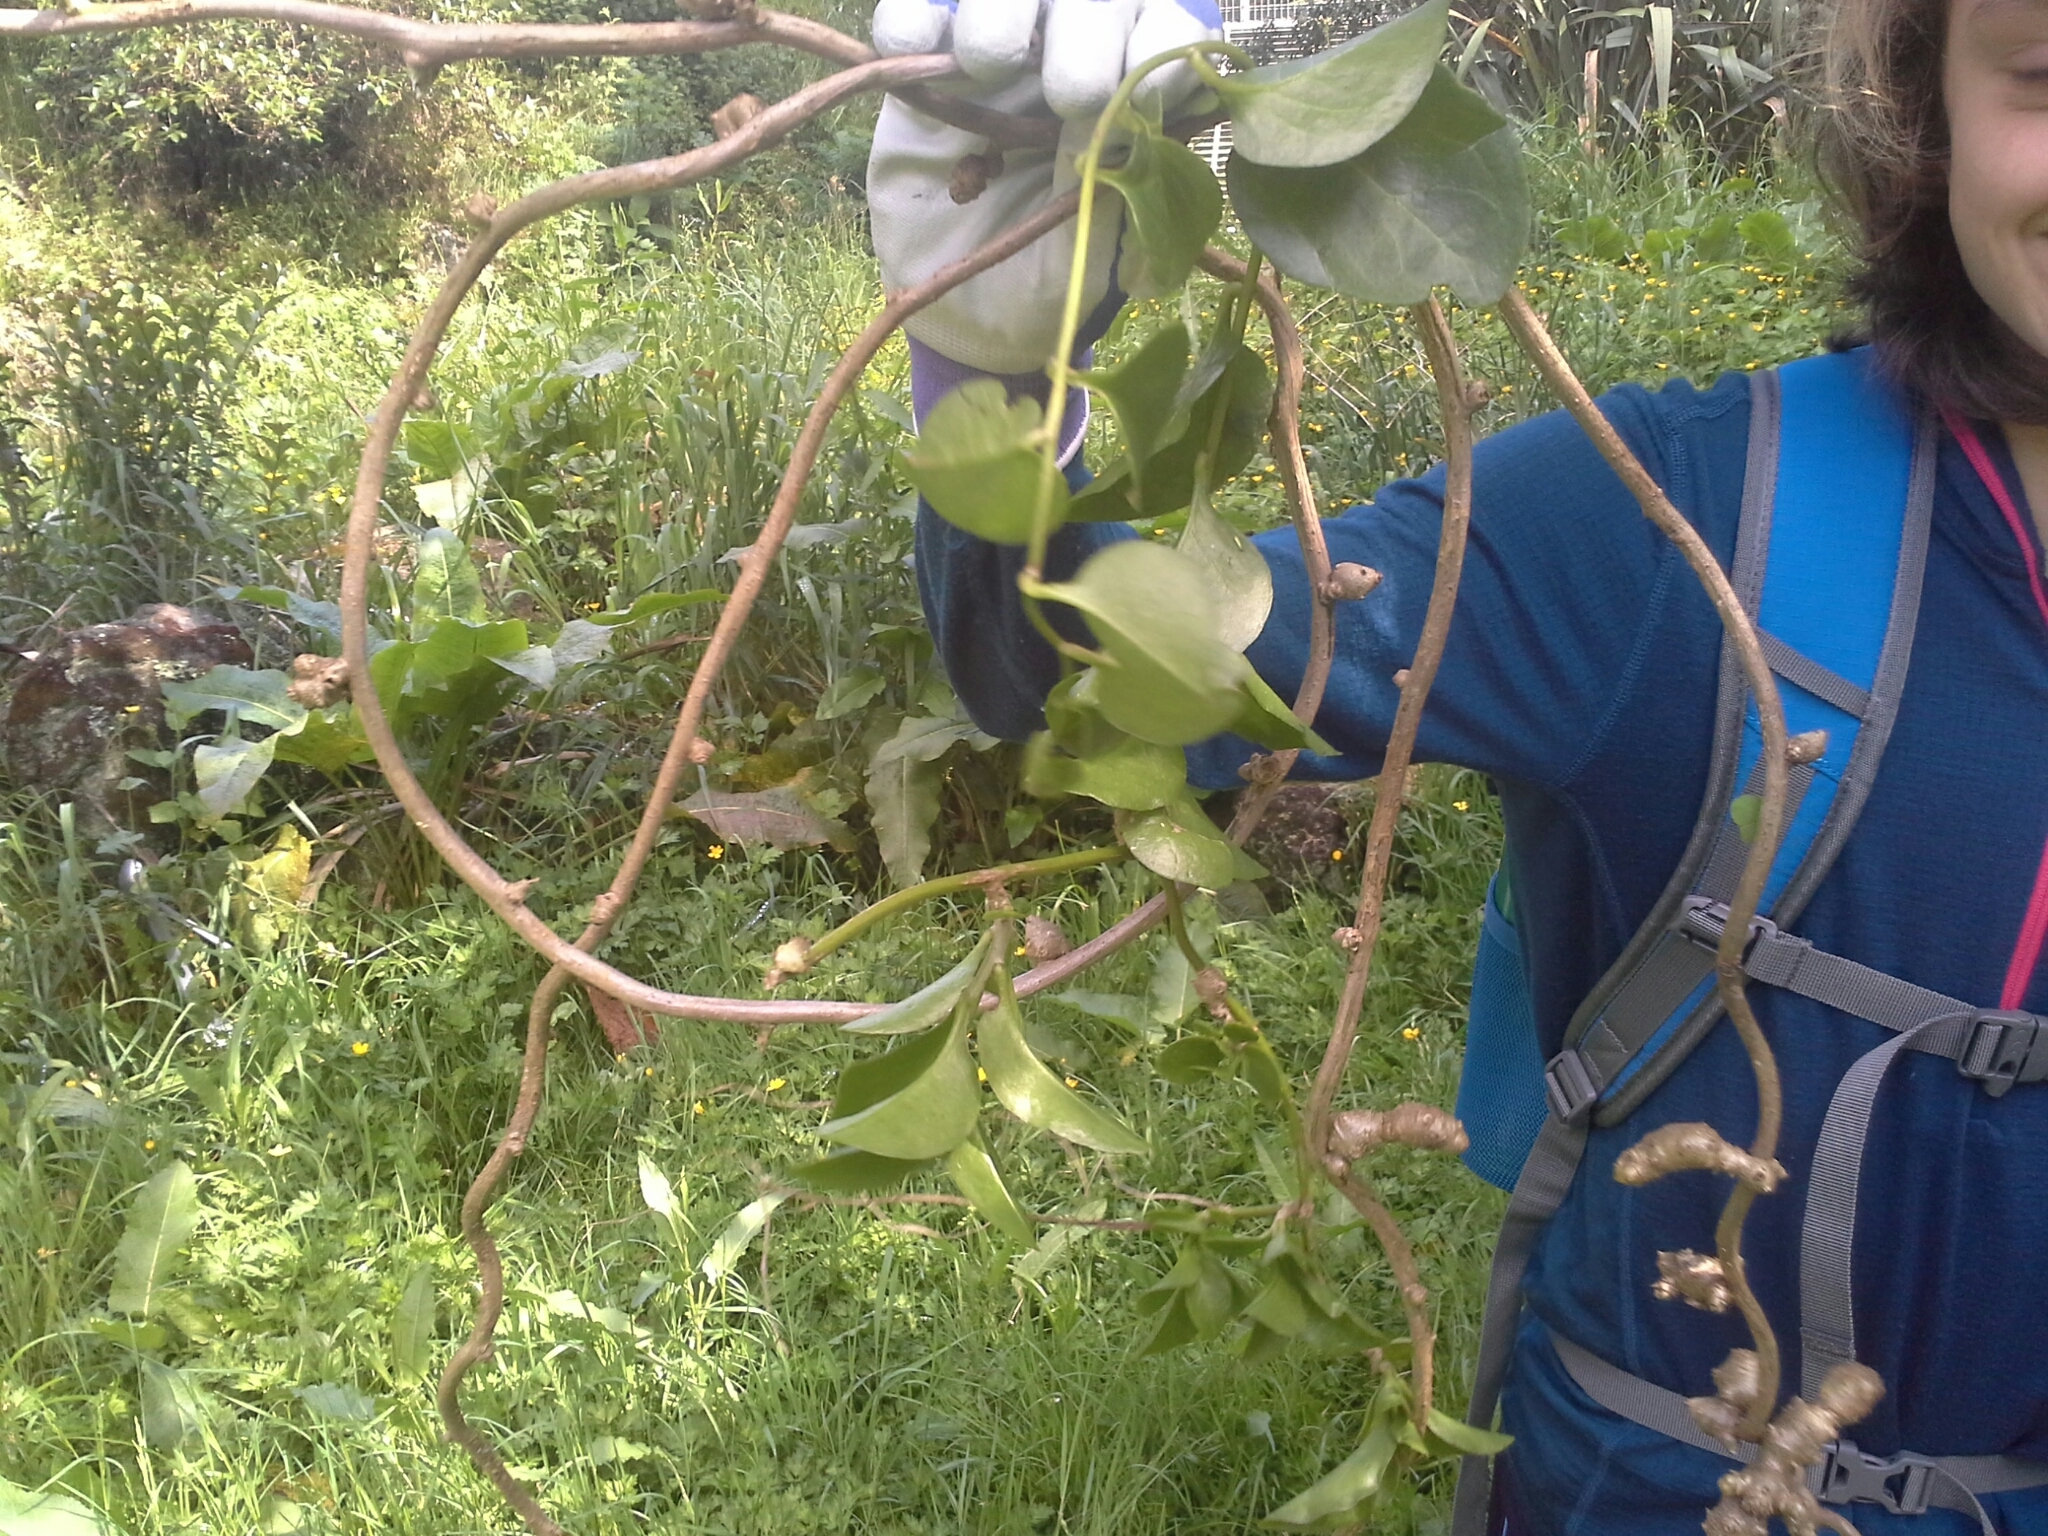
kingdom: Plantae
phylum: Tracheophyta
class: Magnoliopsida
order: Caryophyllales
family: Basellaceae
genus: Anredera
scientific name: Anredera cordifolia
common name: Heartleaf madeiravine
